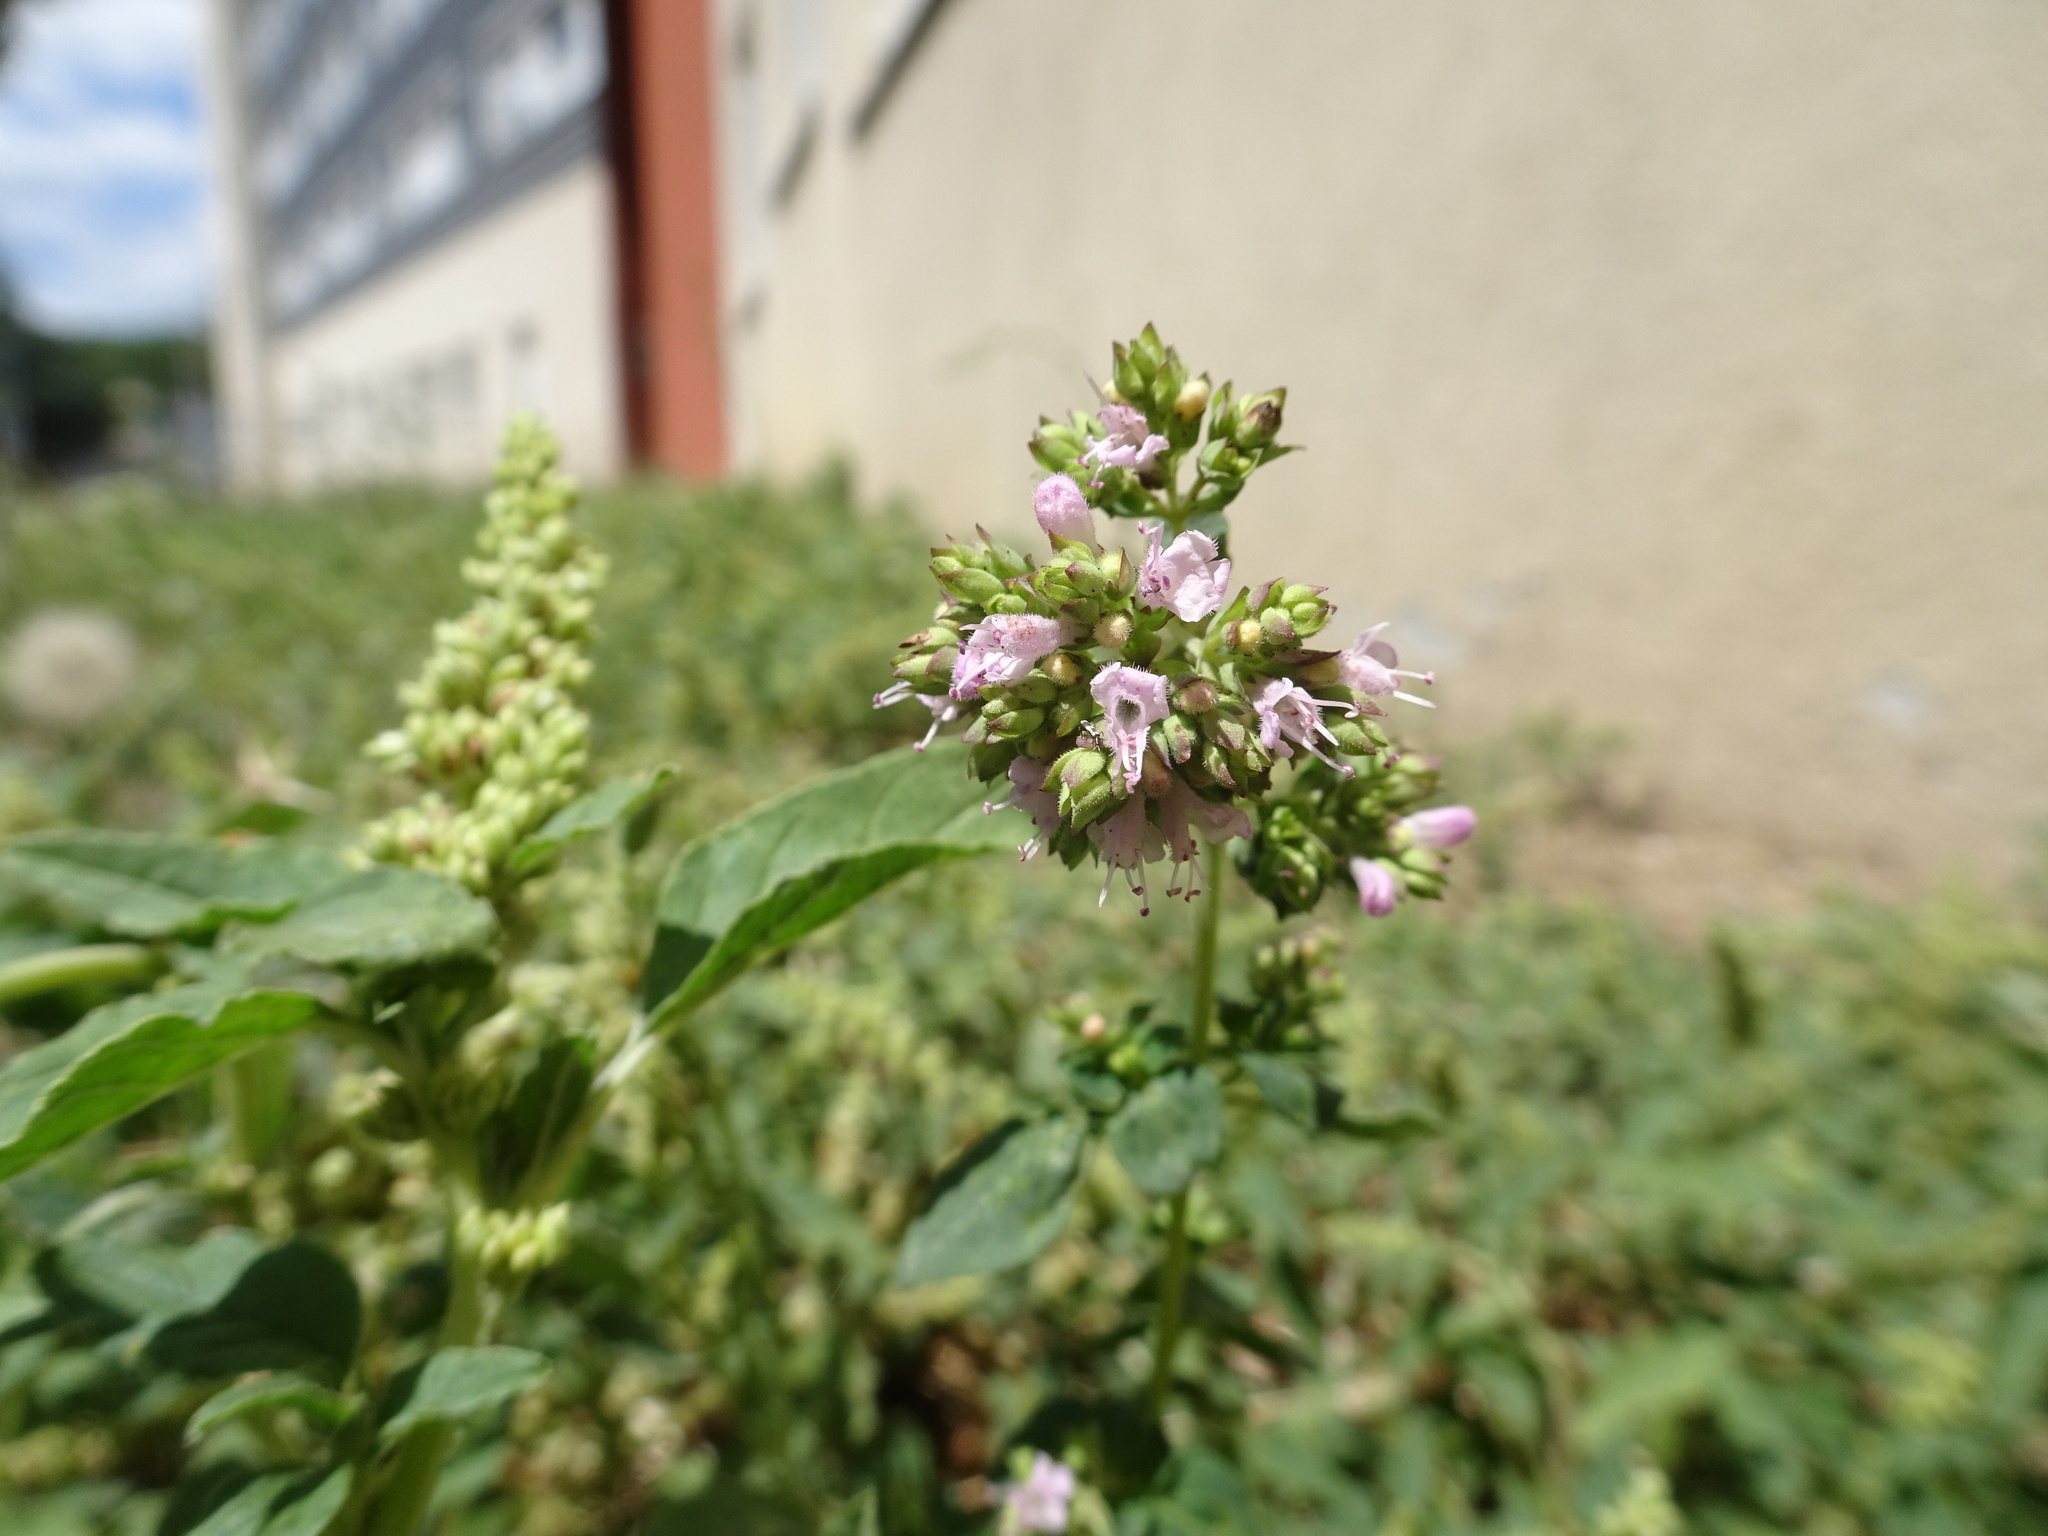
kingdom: Plantae
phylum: Tracheophyta
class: Magnoliopsida
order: Lamiales
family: Lamiaceae
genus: Origanum
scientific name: Origanum vulgare
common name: Wild marjoram
